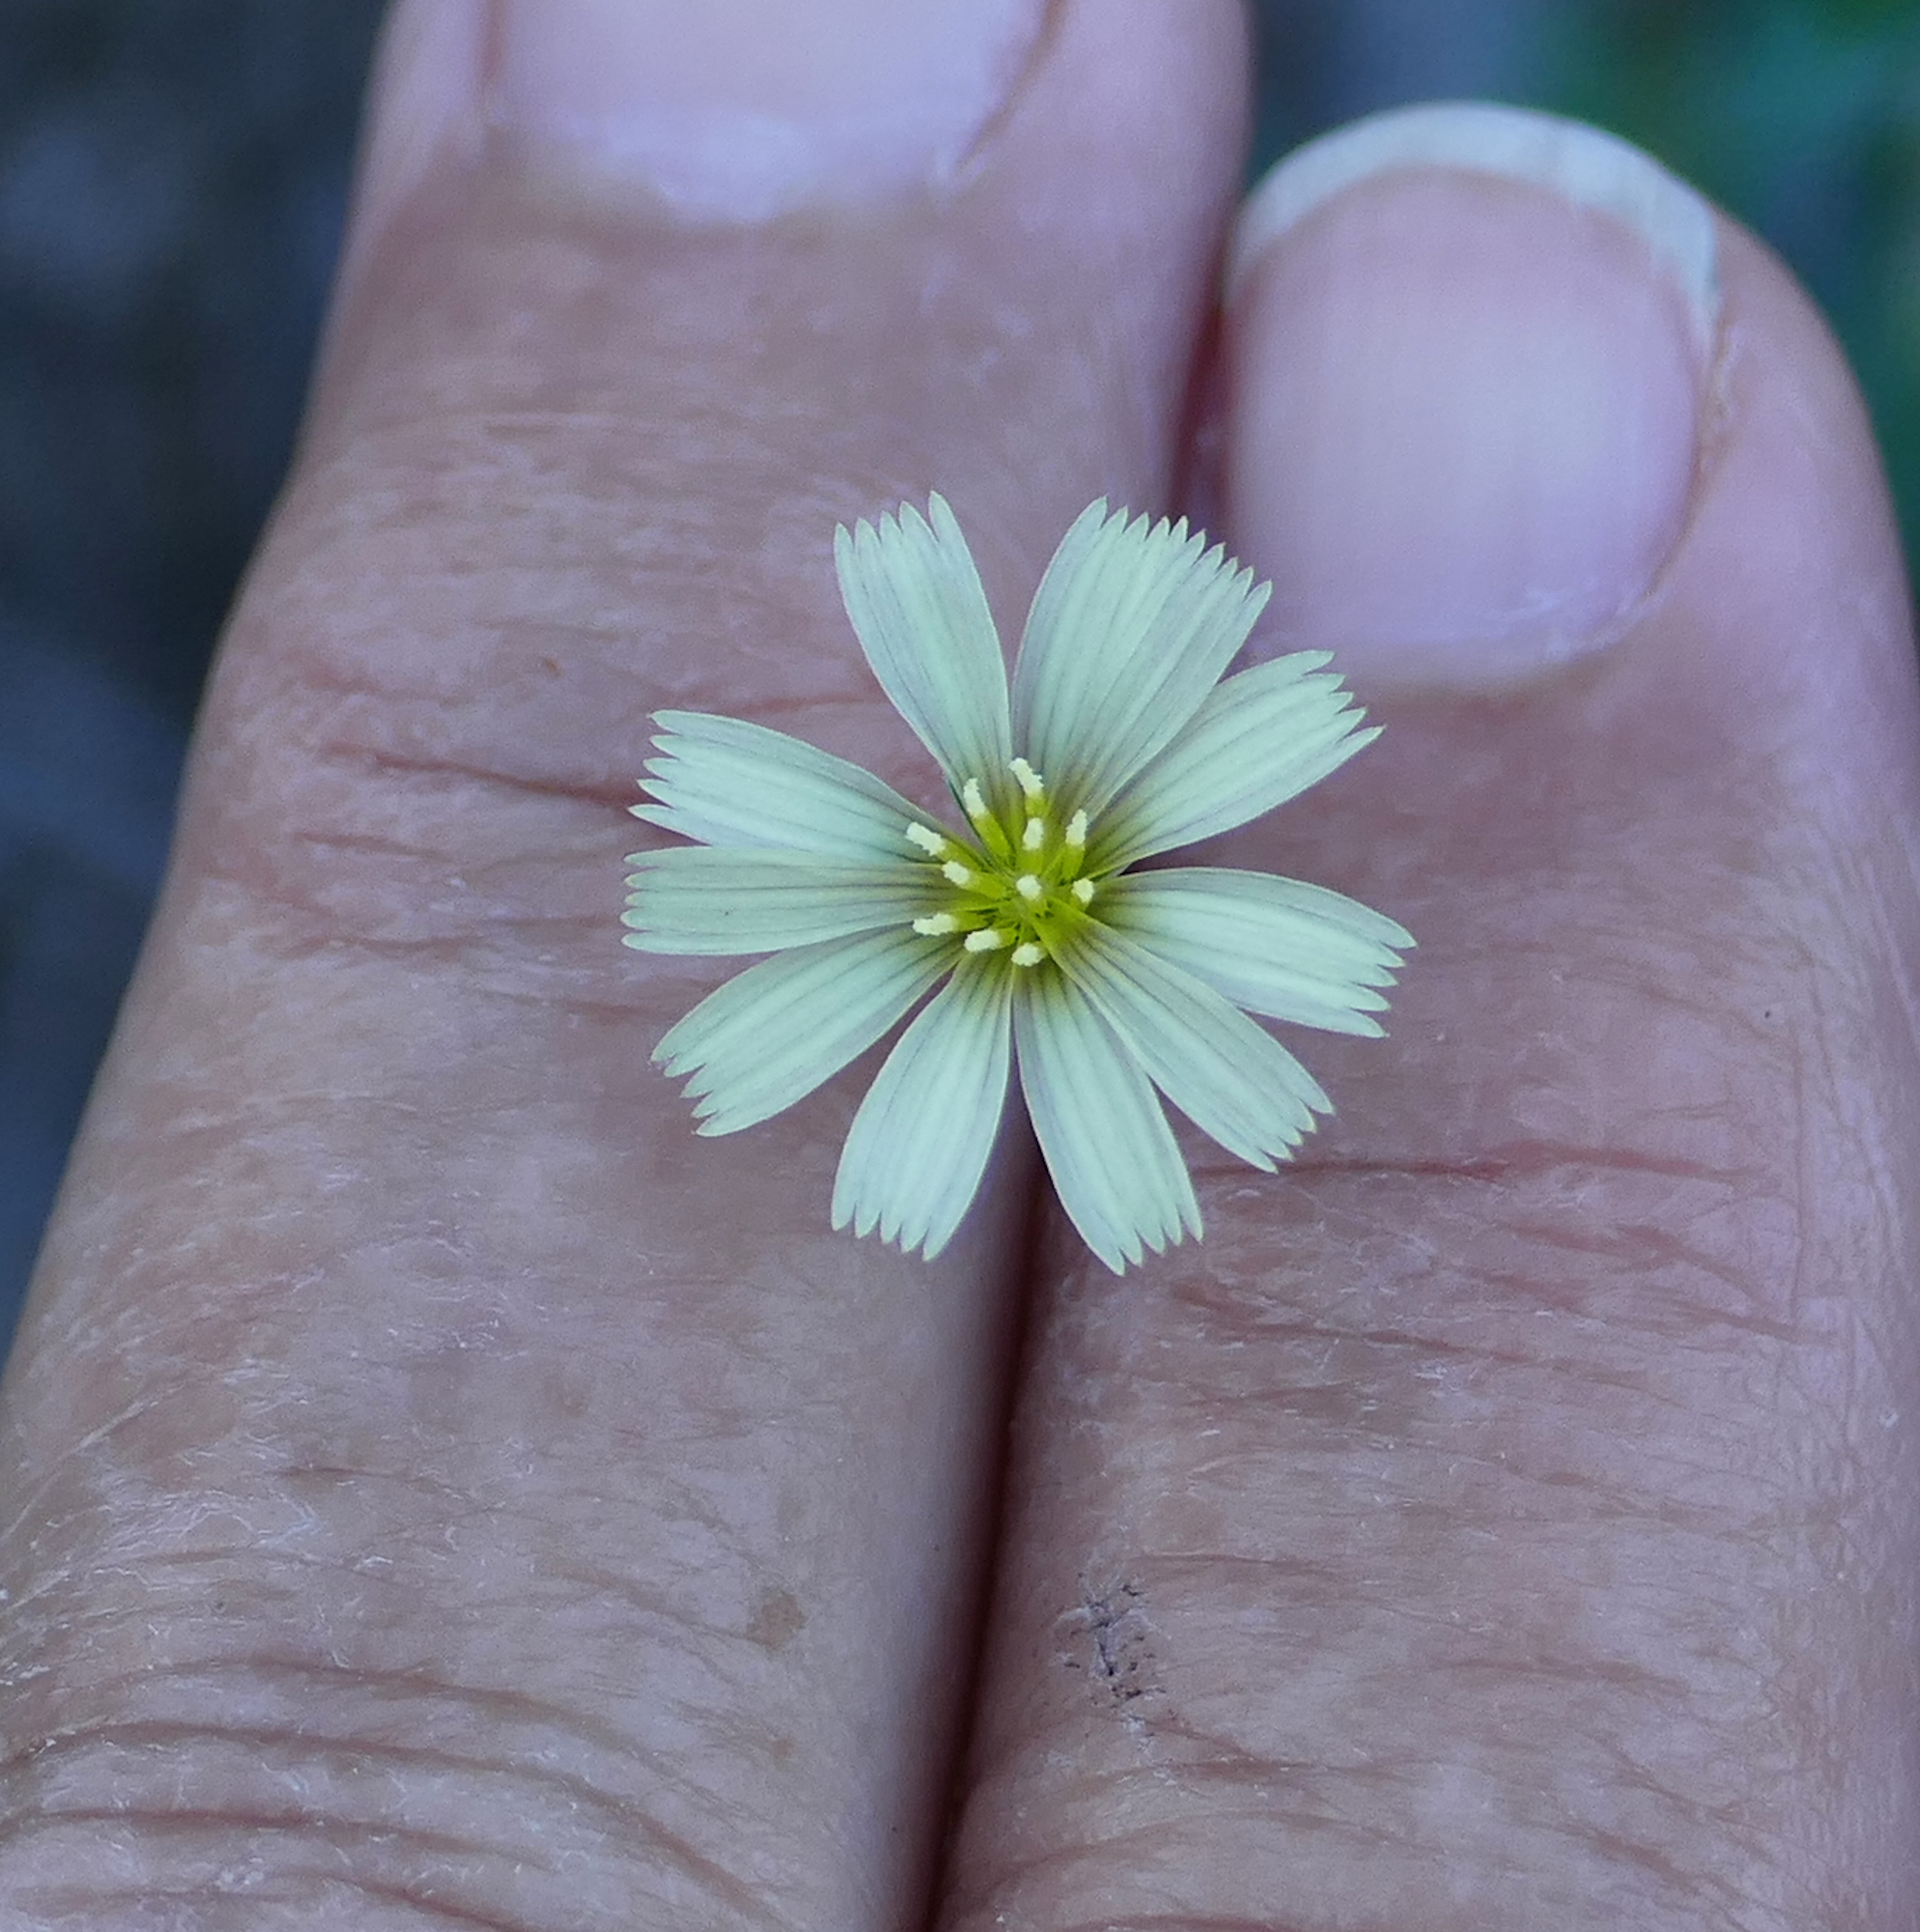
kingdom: Plantae
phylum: Tracheophyta
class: Magnoliopsida
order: Asterales
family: Asteraceae
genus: Lactuca
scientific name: Lactuca serriola
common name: Prickly lettuce
